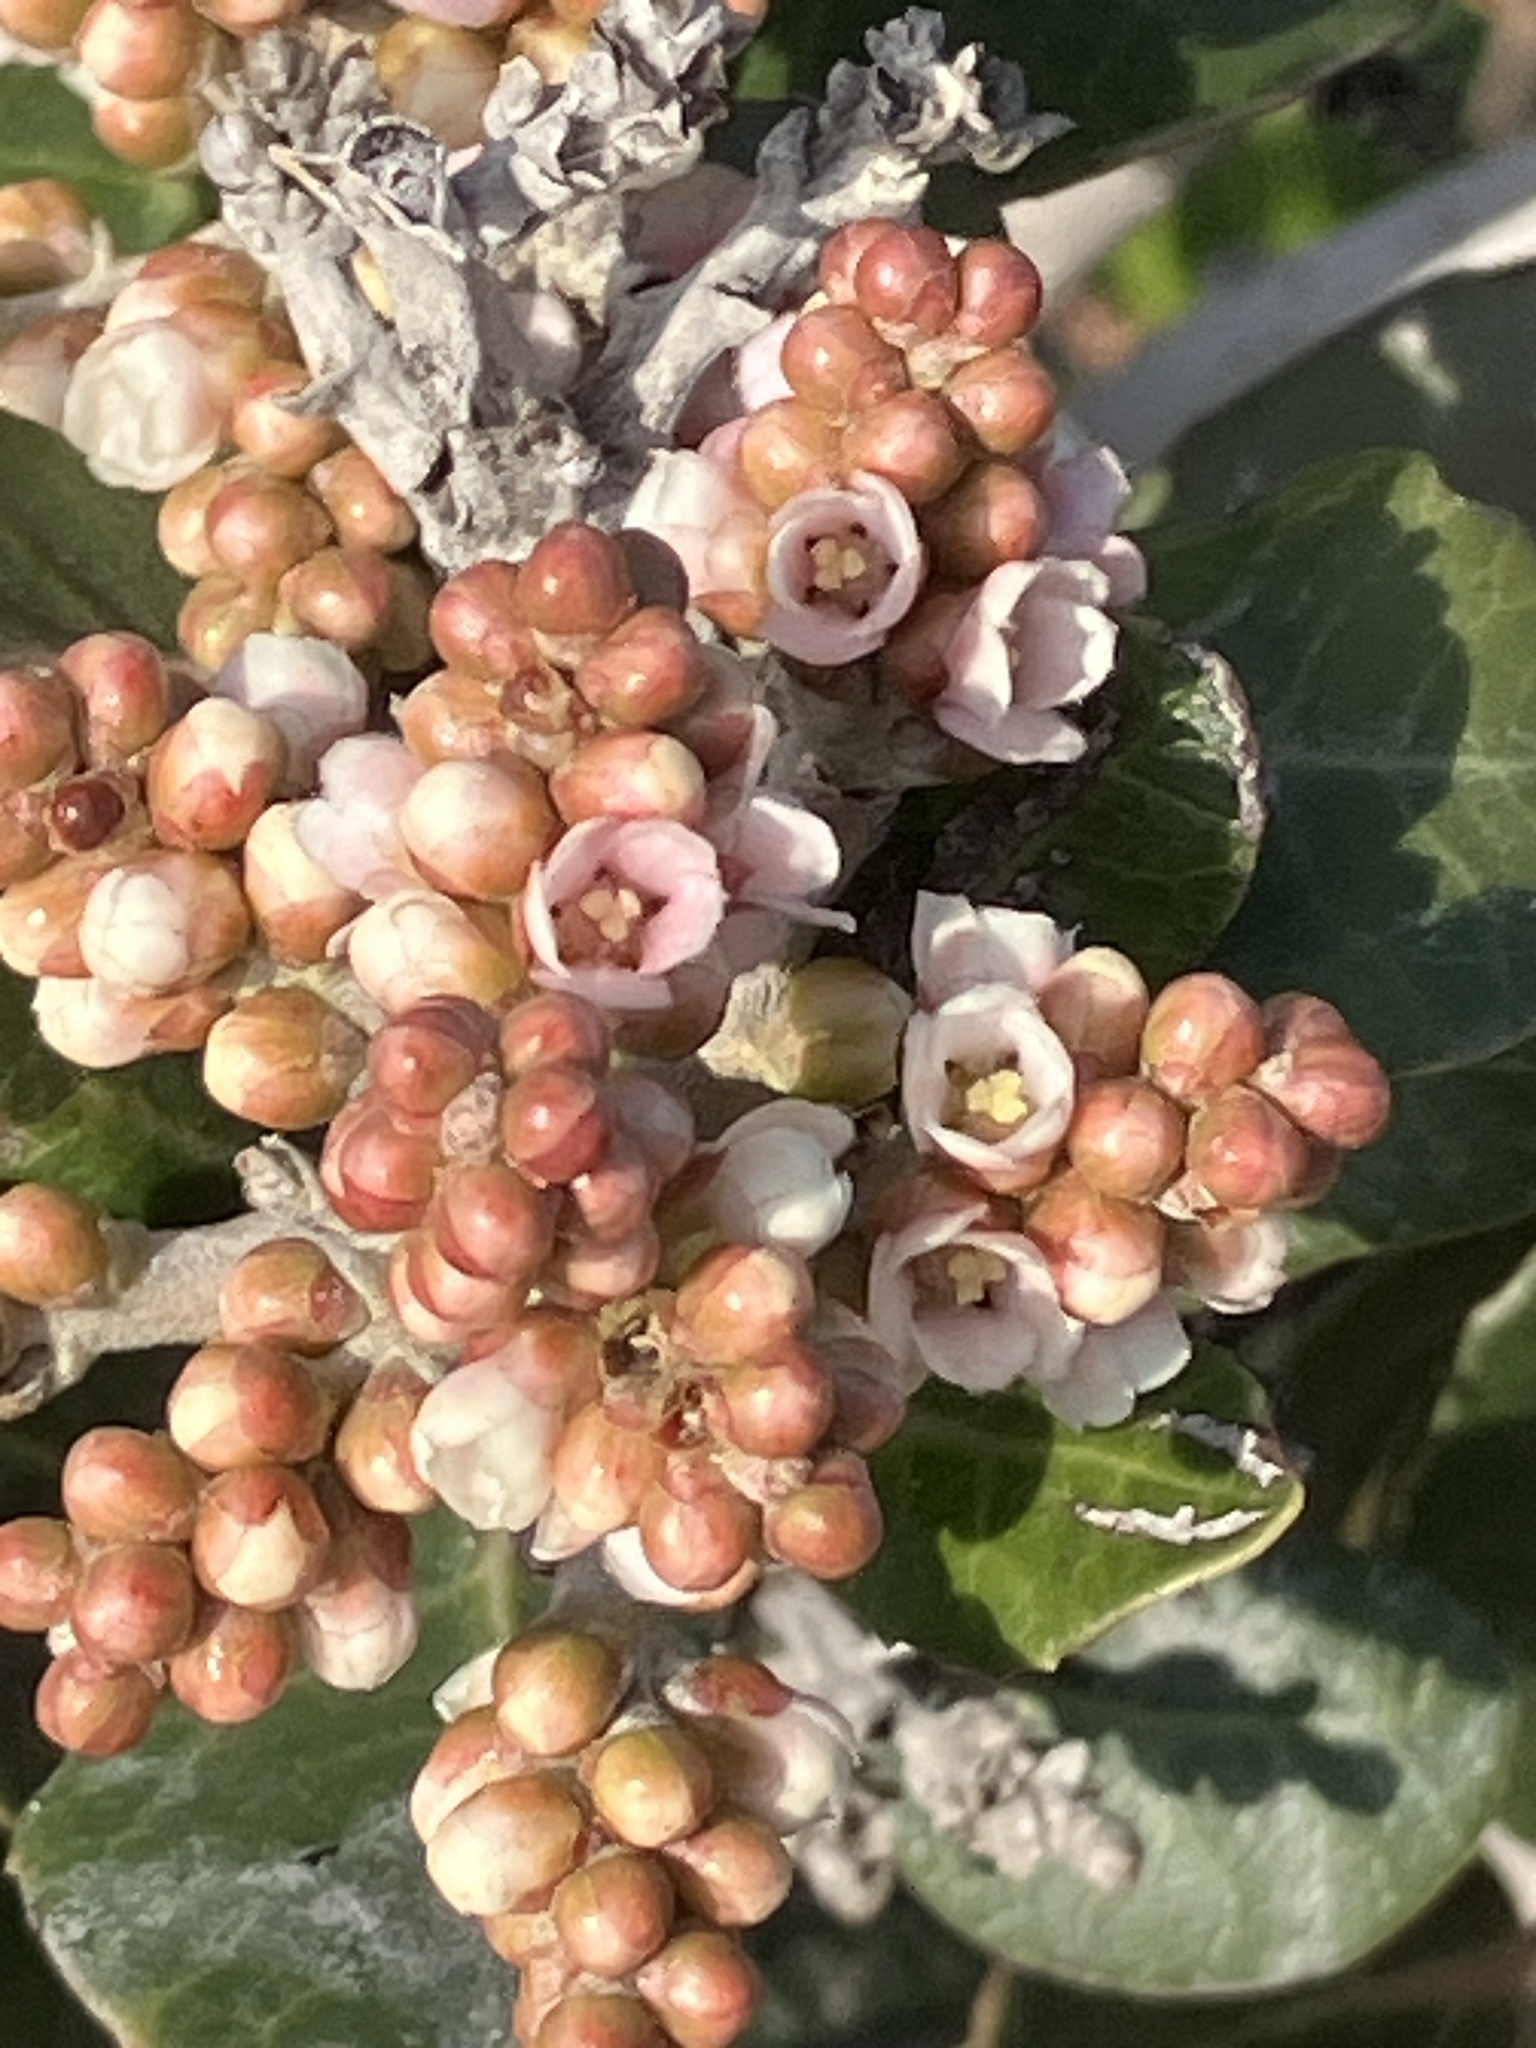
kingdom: Plantae
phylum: Tracheophyta
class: Magnoliopsida
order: Sapindales
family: Anacardiaceae
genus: Rhus
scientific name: Rhus integrifolia
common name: Lemonade sumac
